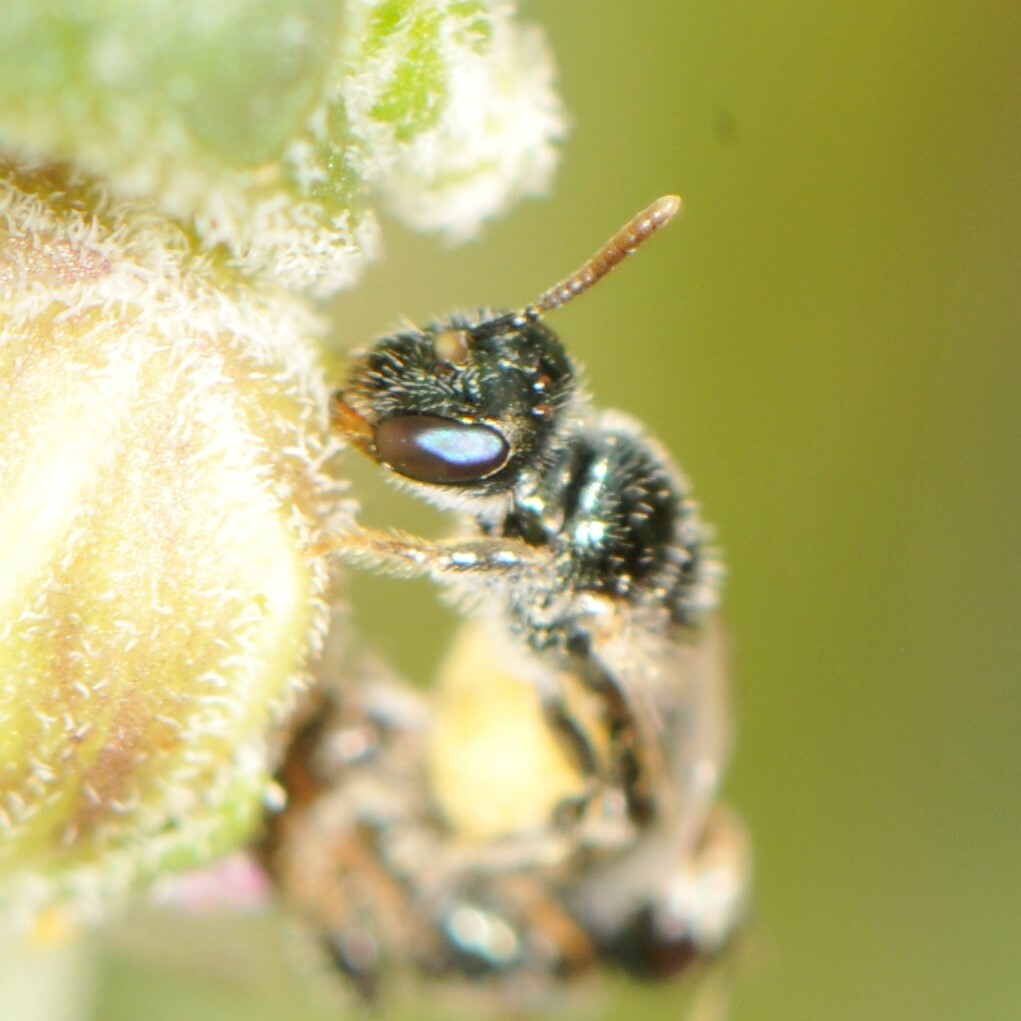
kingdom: Animalia
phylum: Arthropoda
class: Insecta
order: Hymenoptera
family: Andrenidae
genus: Perdita
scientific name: Perdita
